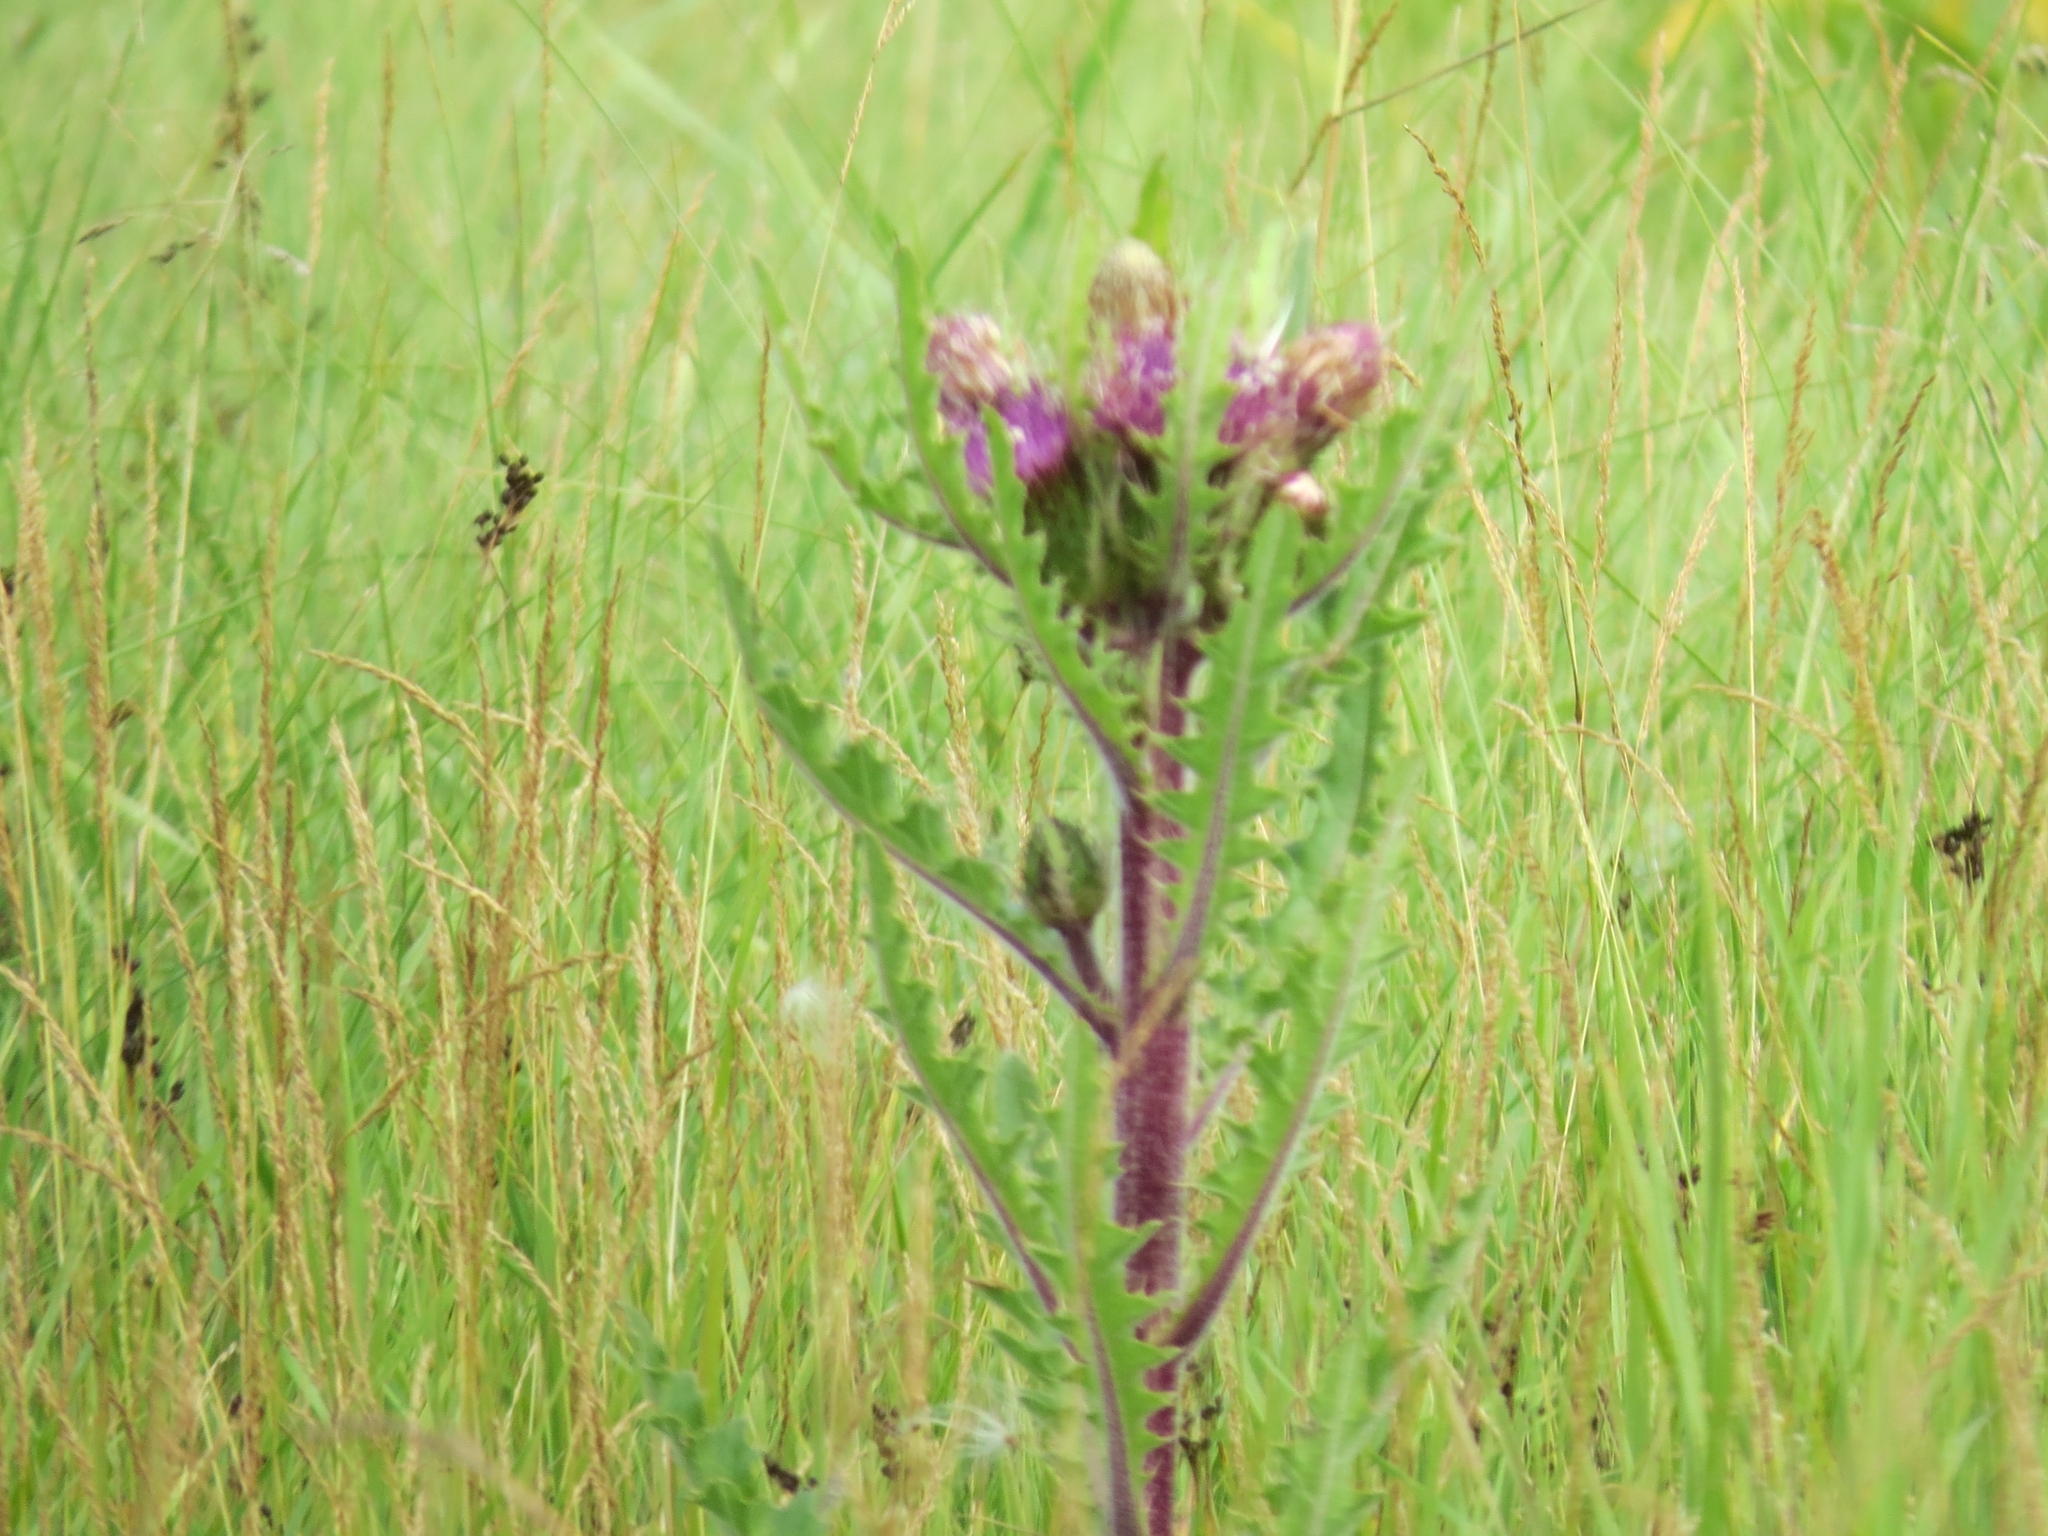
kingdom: Plantae
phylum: Tracheophyta
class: Magnoliopsida
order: Asterales
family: Asteraceae
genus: Cirsium
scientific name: Cirsium esculentum
